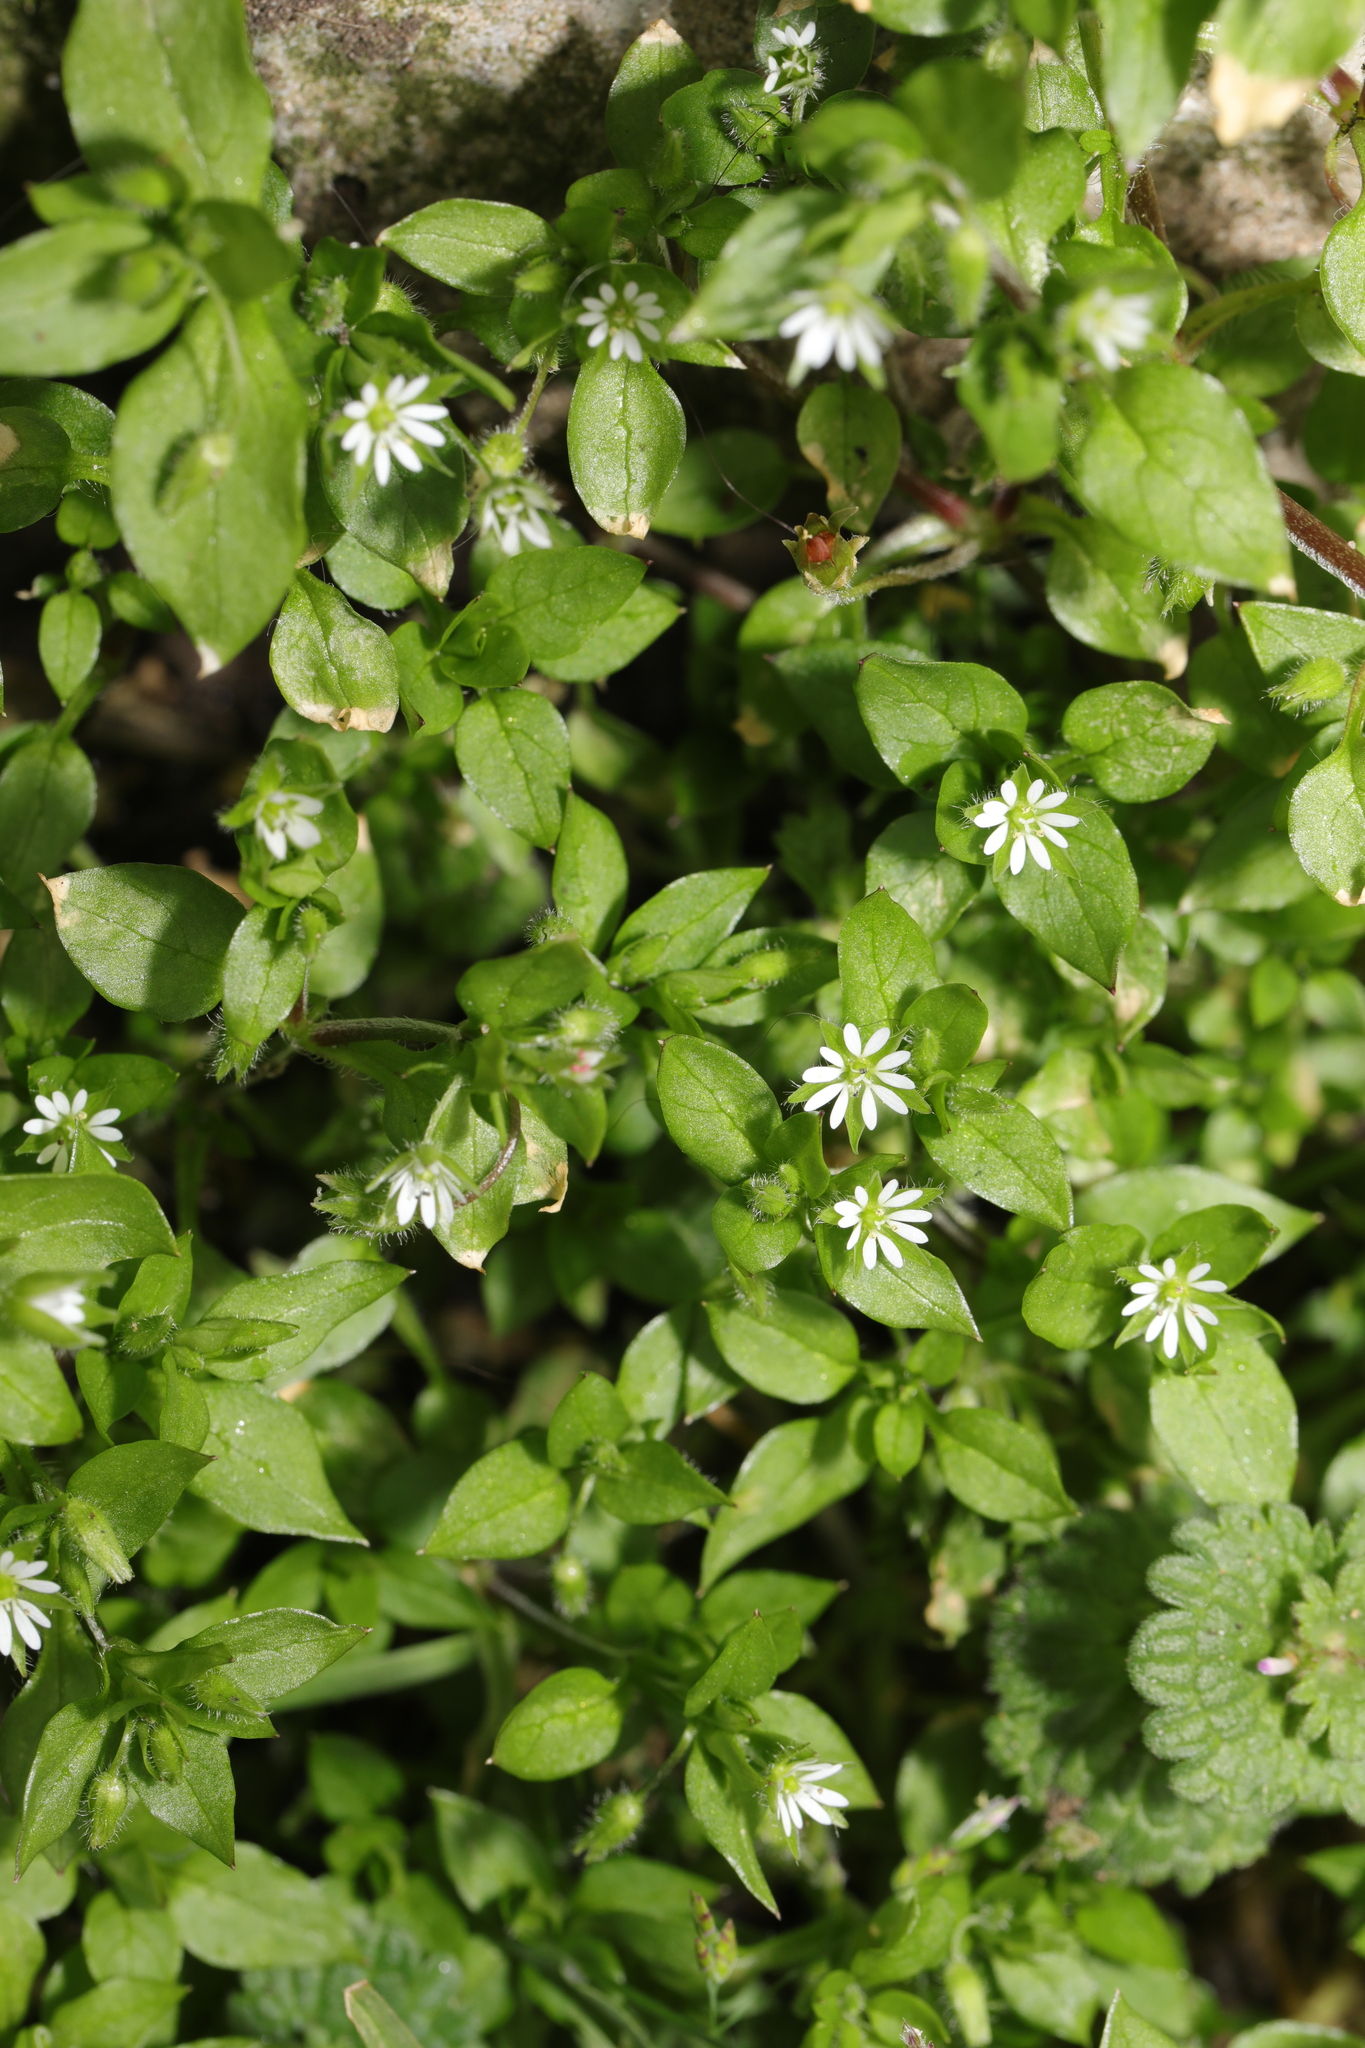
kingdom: Plantae
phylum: Tracheophyta
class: Magnoliopsida
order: Caryophyllales
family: Caryophyllaceae
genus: Stellaria
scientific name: Stellaria media
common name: Common chickweed
